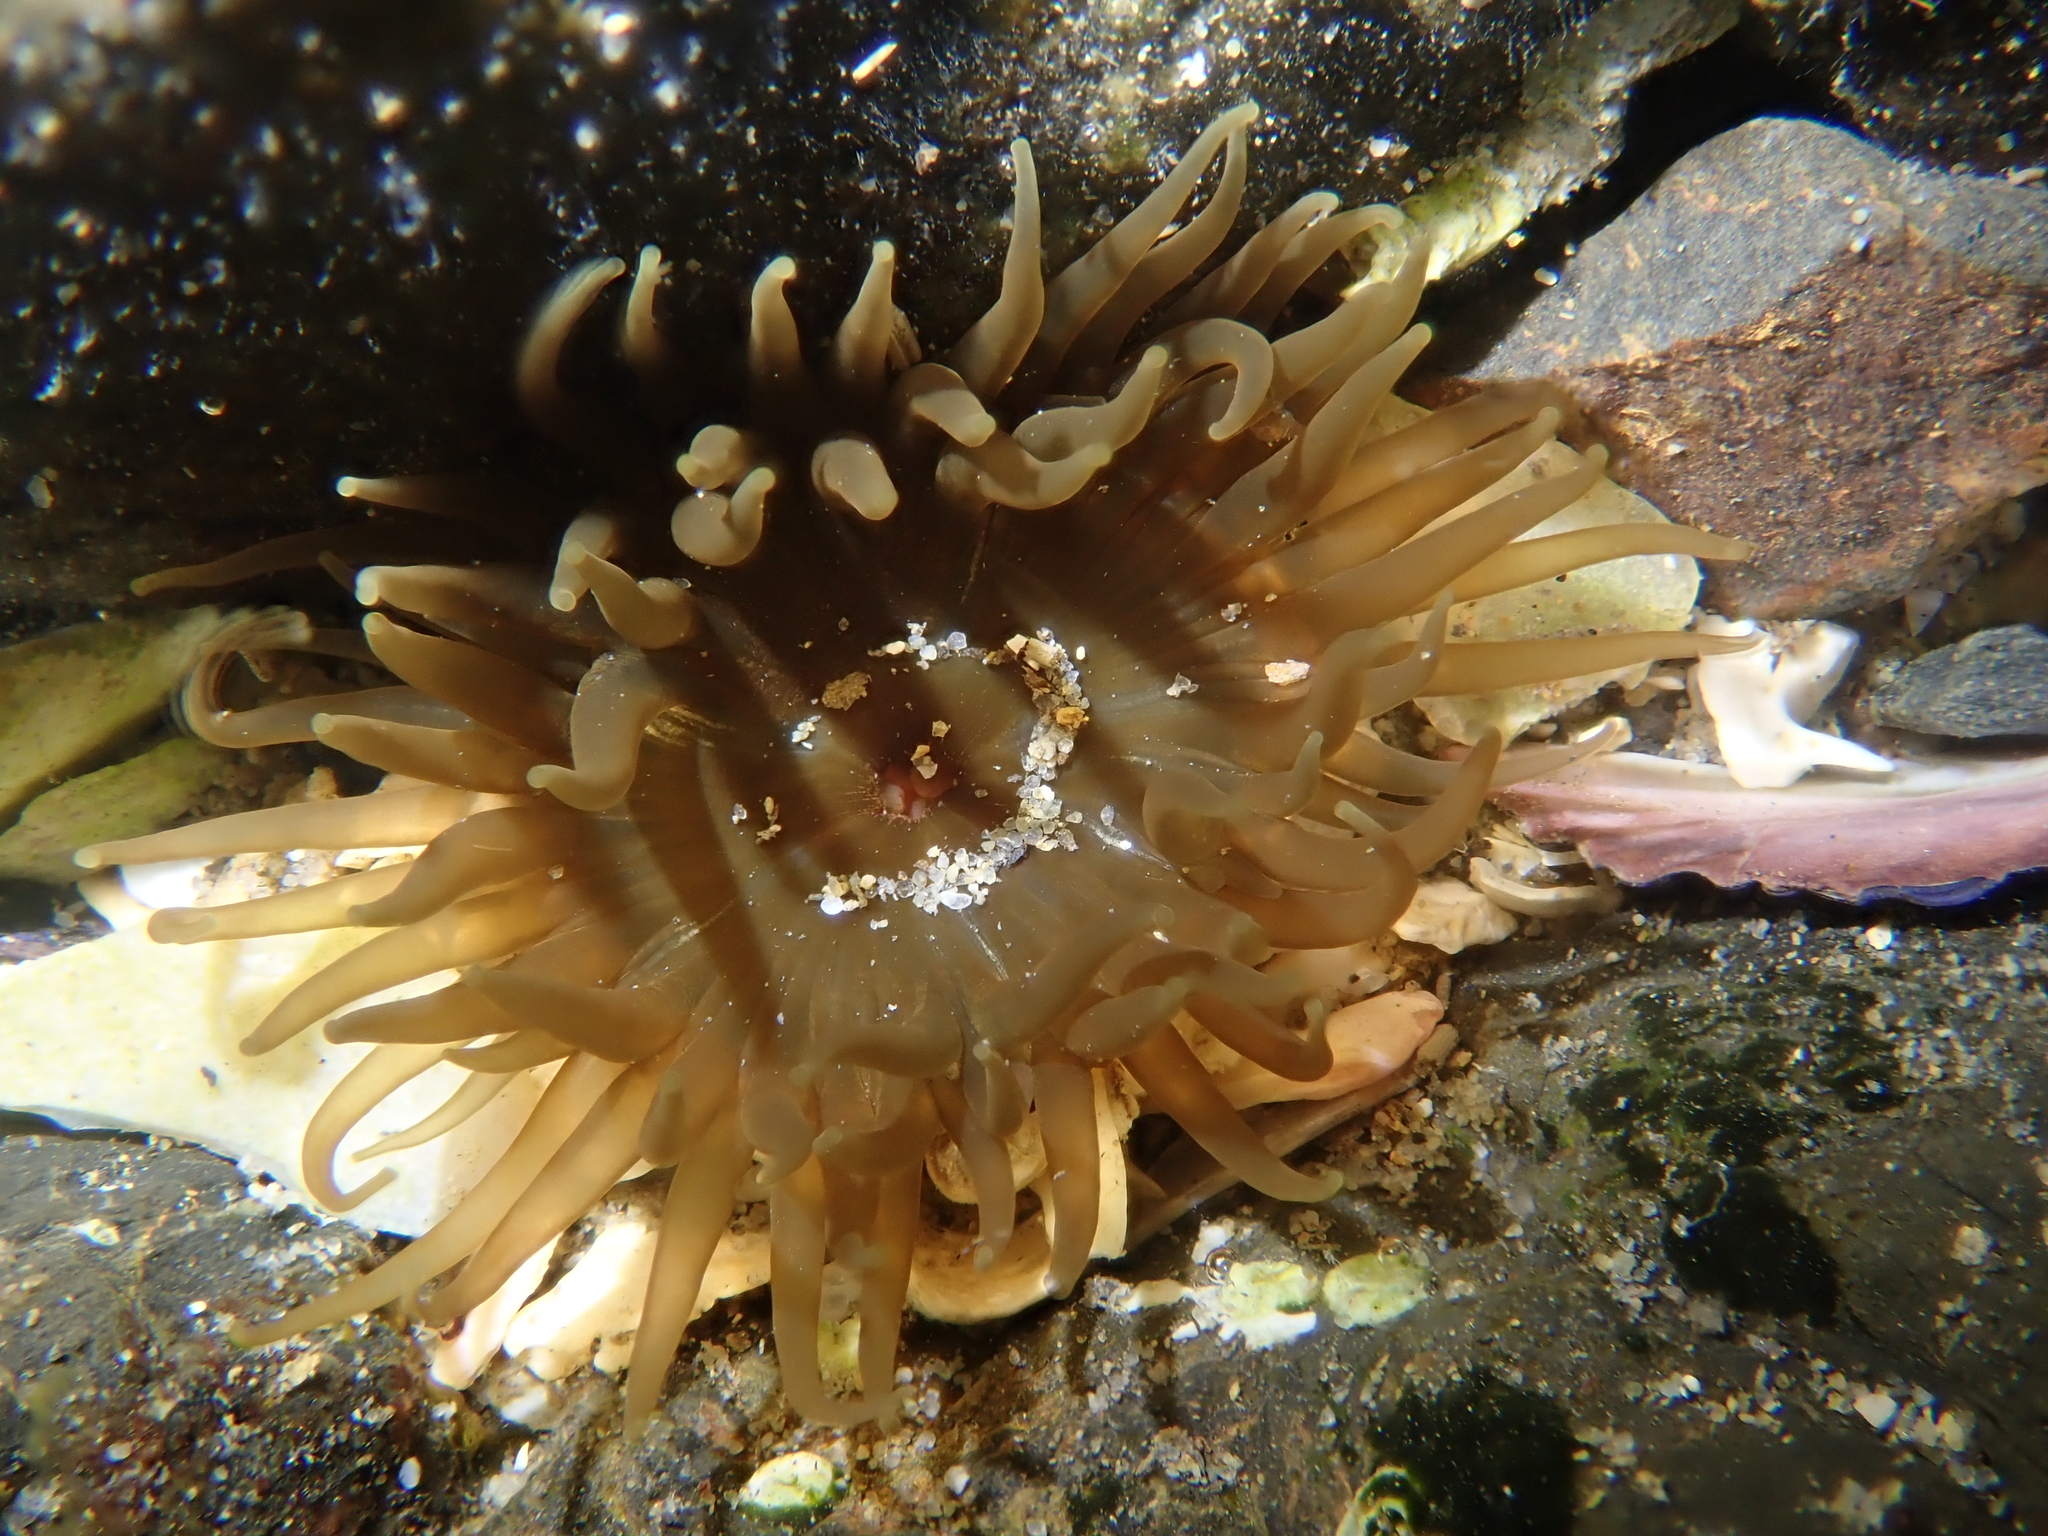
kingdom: Animalia
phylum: Cnidaria
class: Anthozoa
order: Actiniaria
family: Actiniidae
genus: Isactinia
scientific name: Isactinia olivacea
